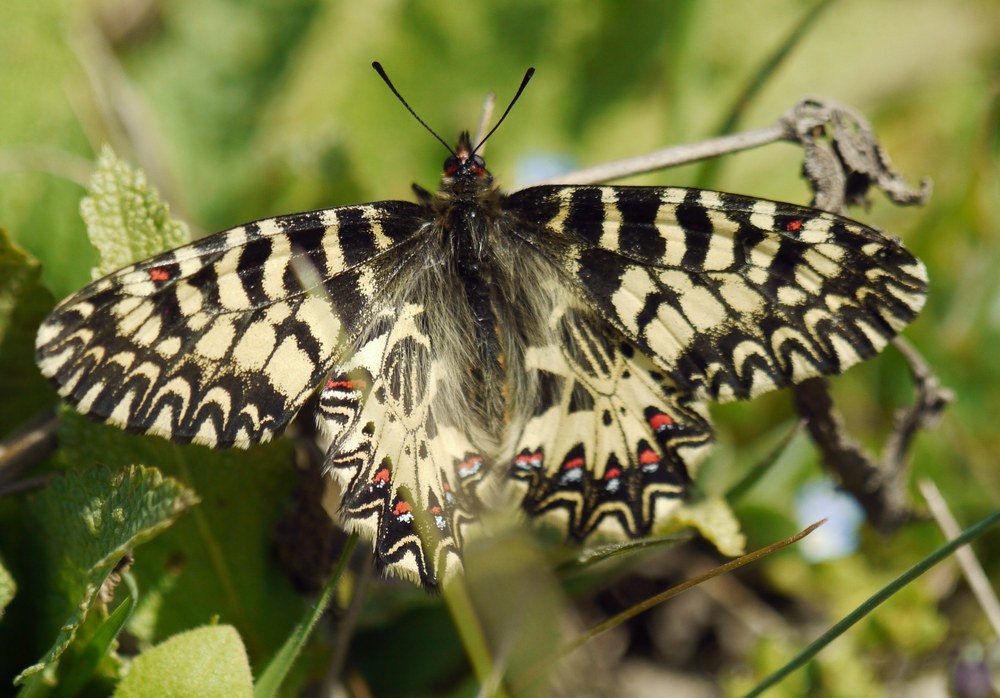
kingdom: Animalia
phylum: Arthropoda
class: Insecta
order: Lepidoptera
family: Papilionidae
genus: Zerynthia
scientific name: Zerynthia polyxena
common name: Southern festoon
